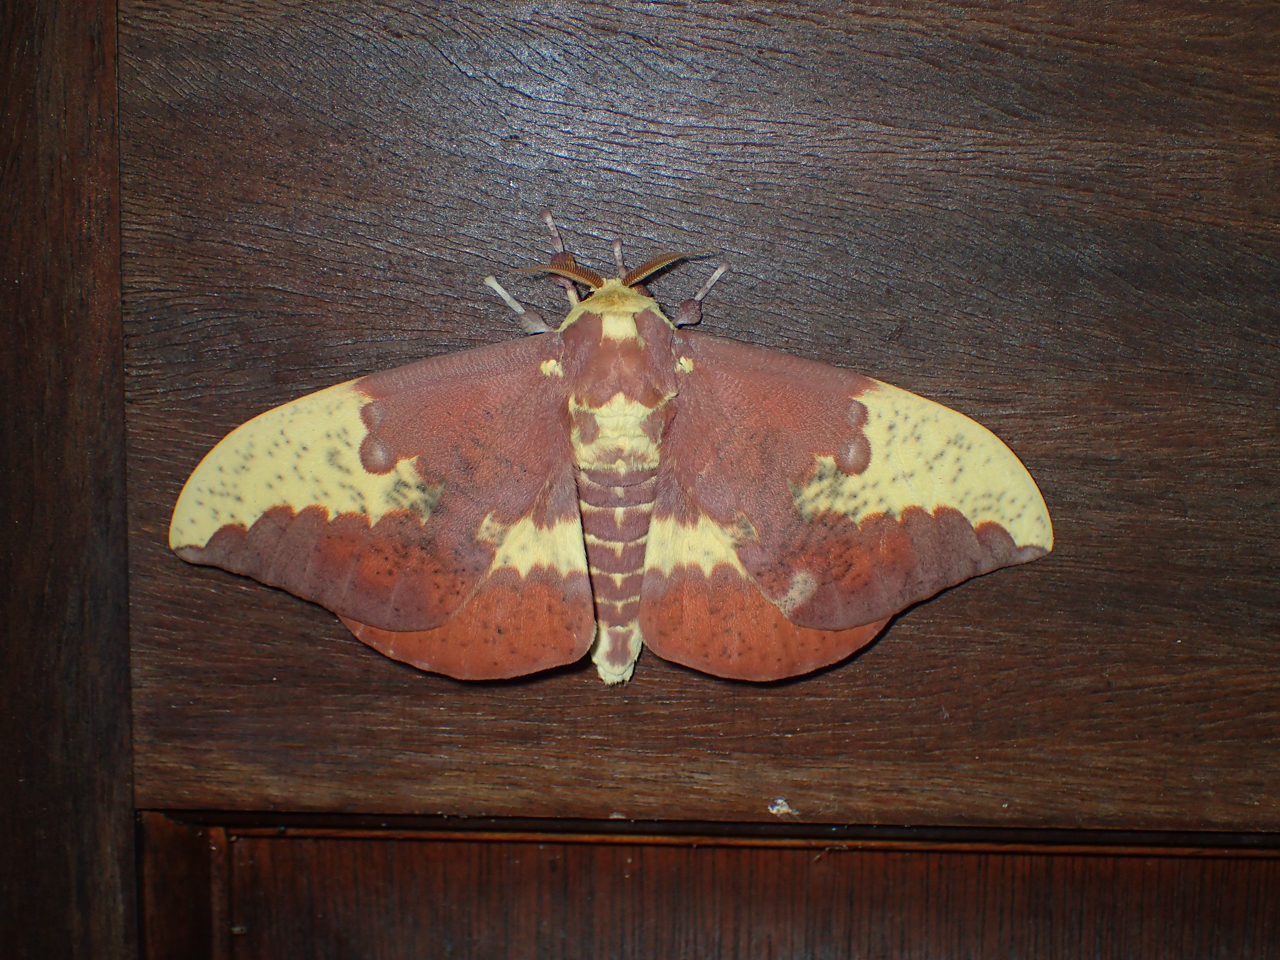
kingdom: Animalia
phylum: Arthropoda
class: Insecta
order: Lepidoptera
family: Saturniidae
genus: Eacles
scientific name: Eacles imperialis
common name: Imperial moth
